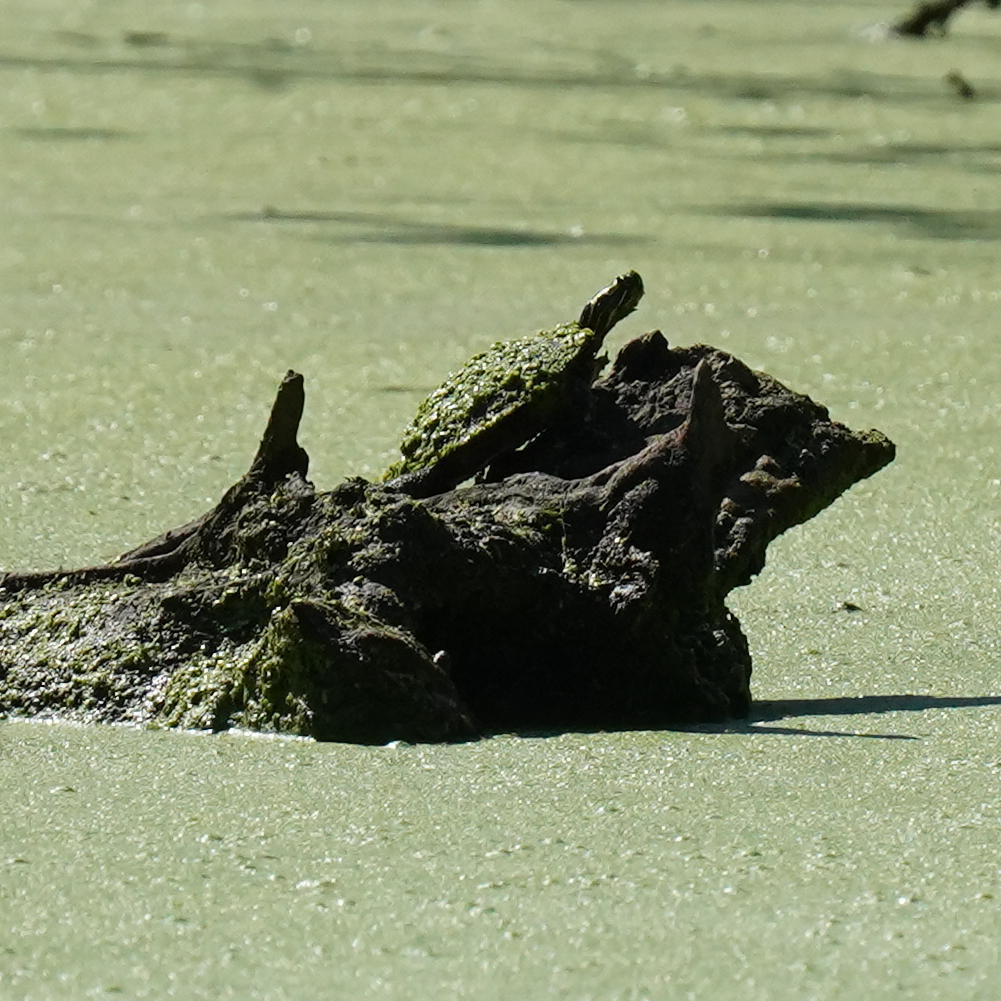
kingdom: Animalia
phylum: Chordata
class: Testudines
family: Emydidae
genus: Chrysemys
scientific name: Chrysemys picta
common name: Painted turtle
